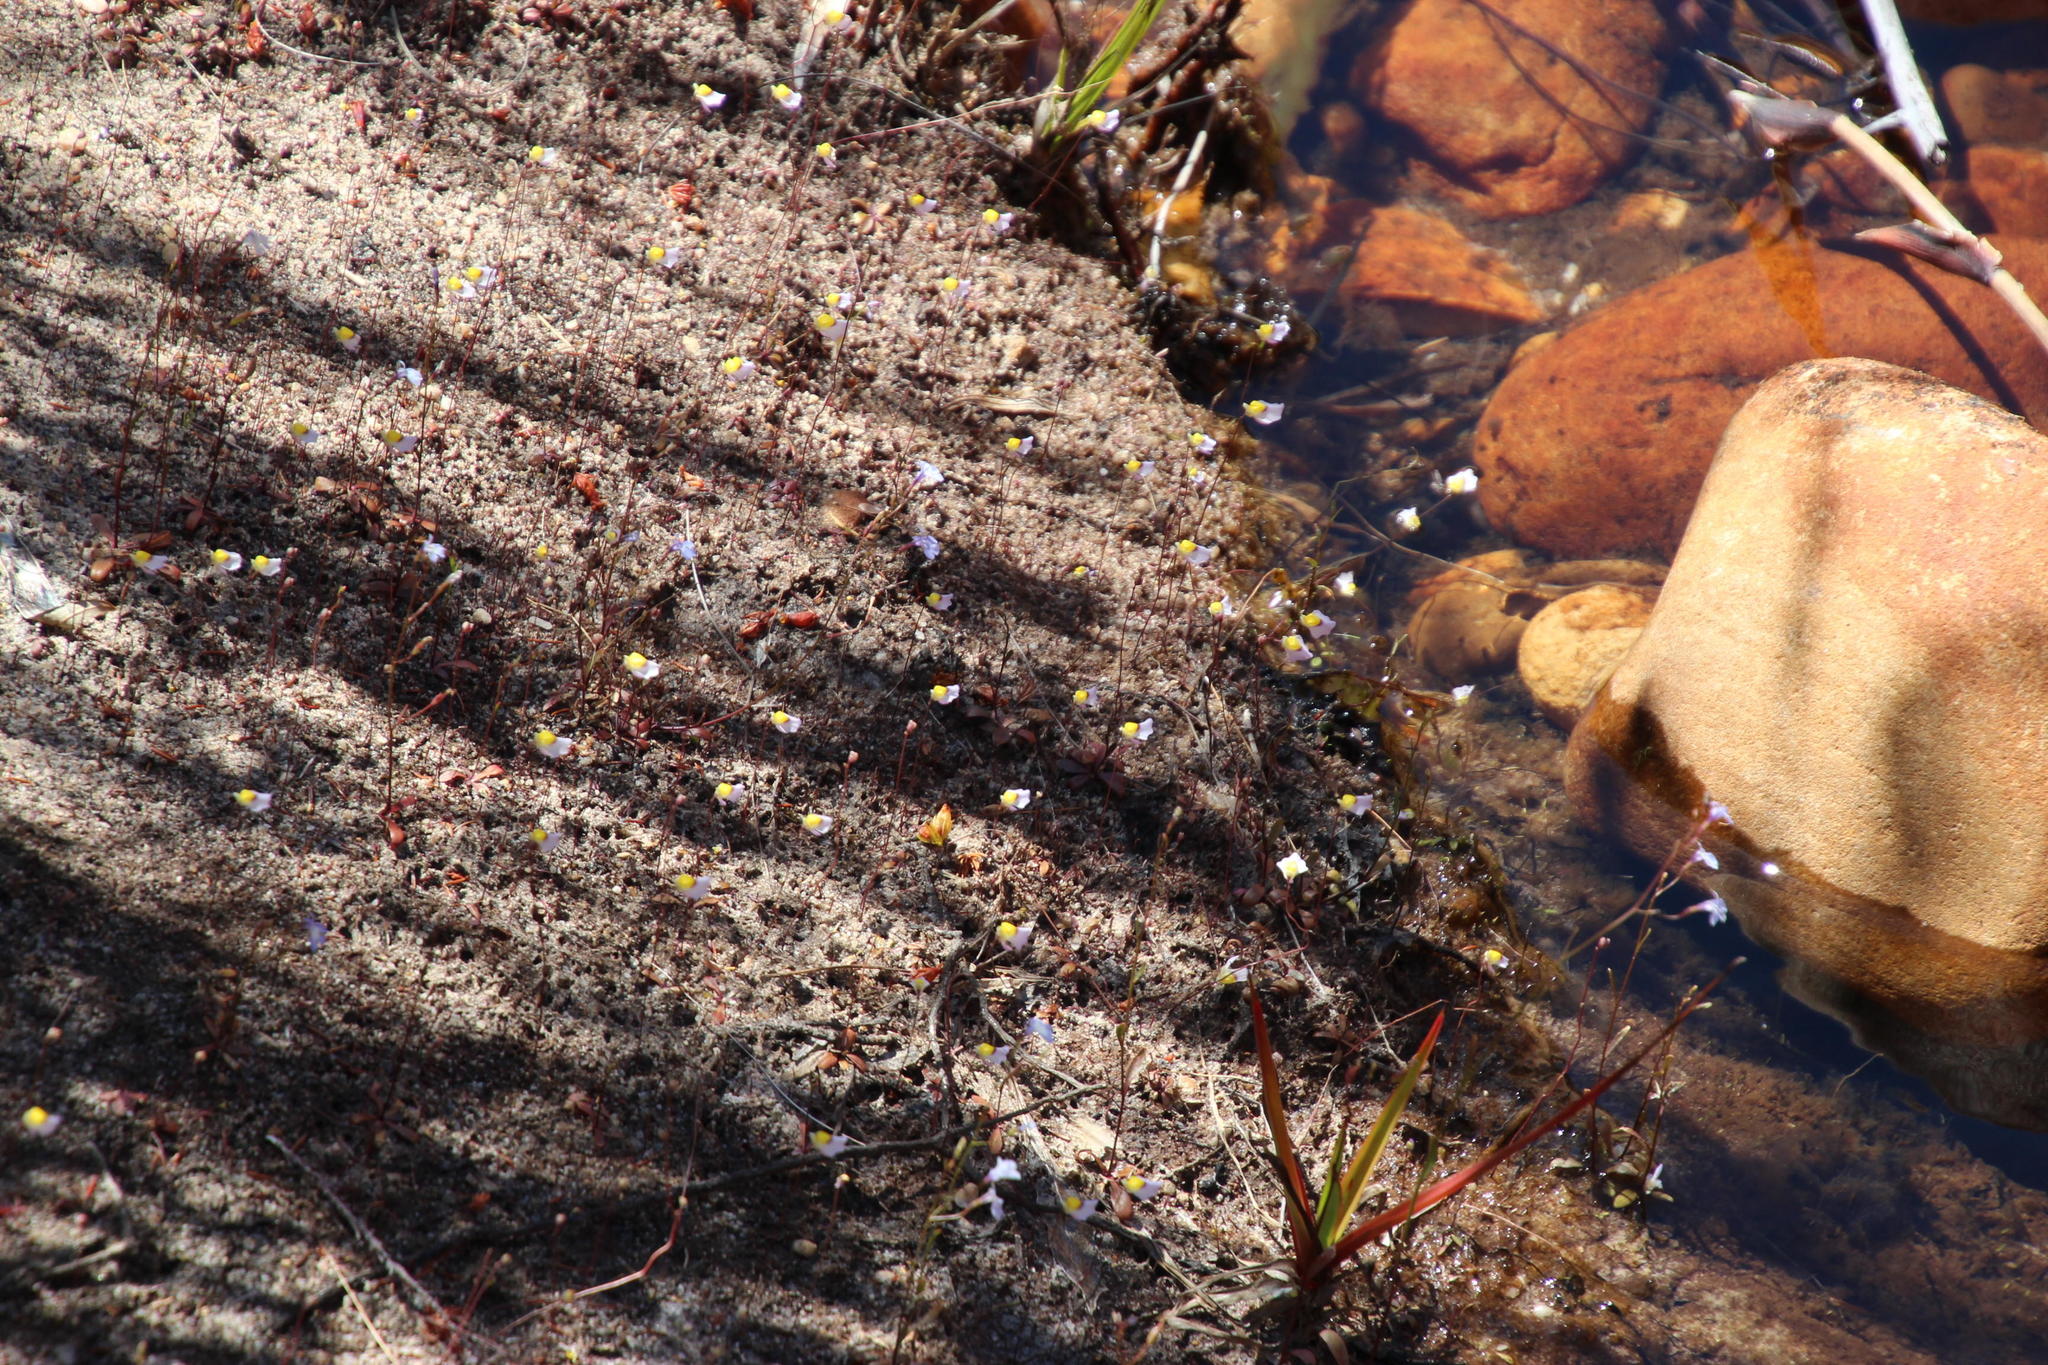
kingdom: Plantae
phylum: Tracheophyta
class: Magnoliopsida
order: Lamiales
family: Lentibulariaceae
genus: Utricularia
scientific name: Utricularia bisquamata
